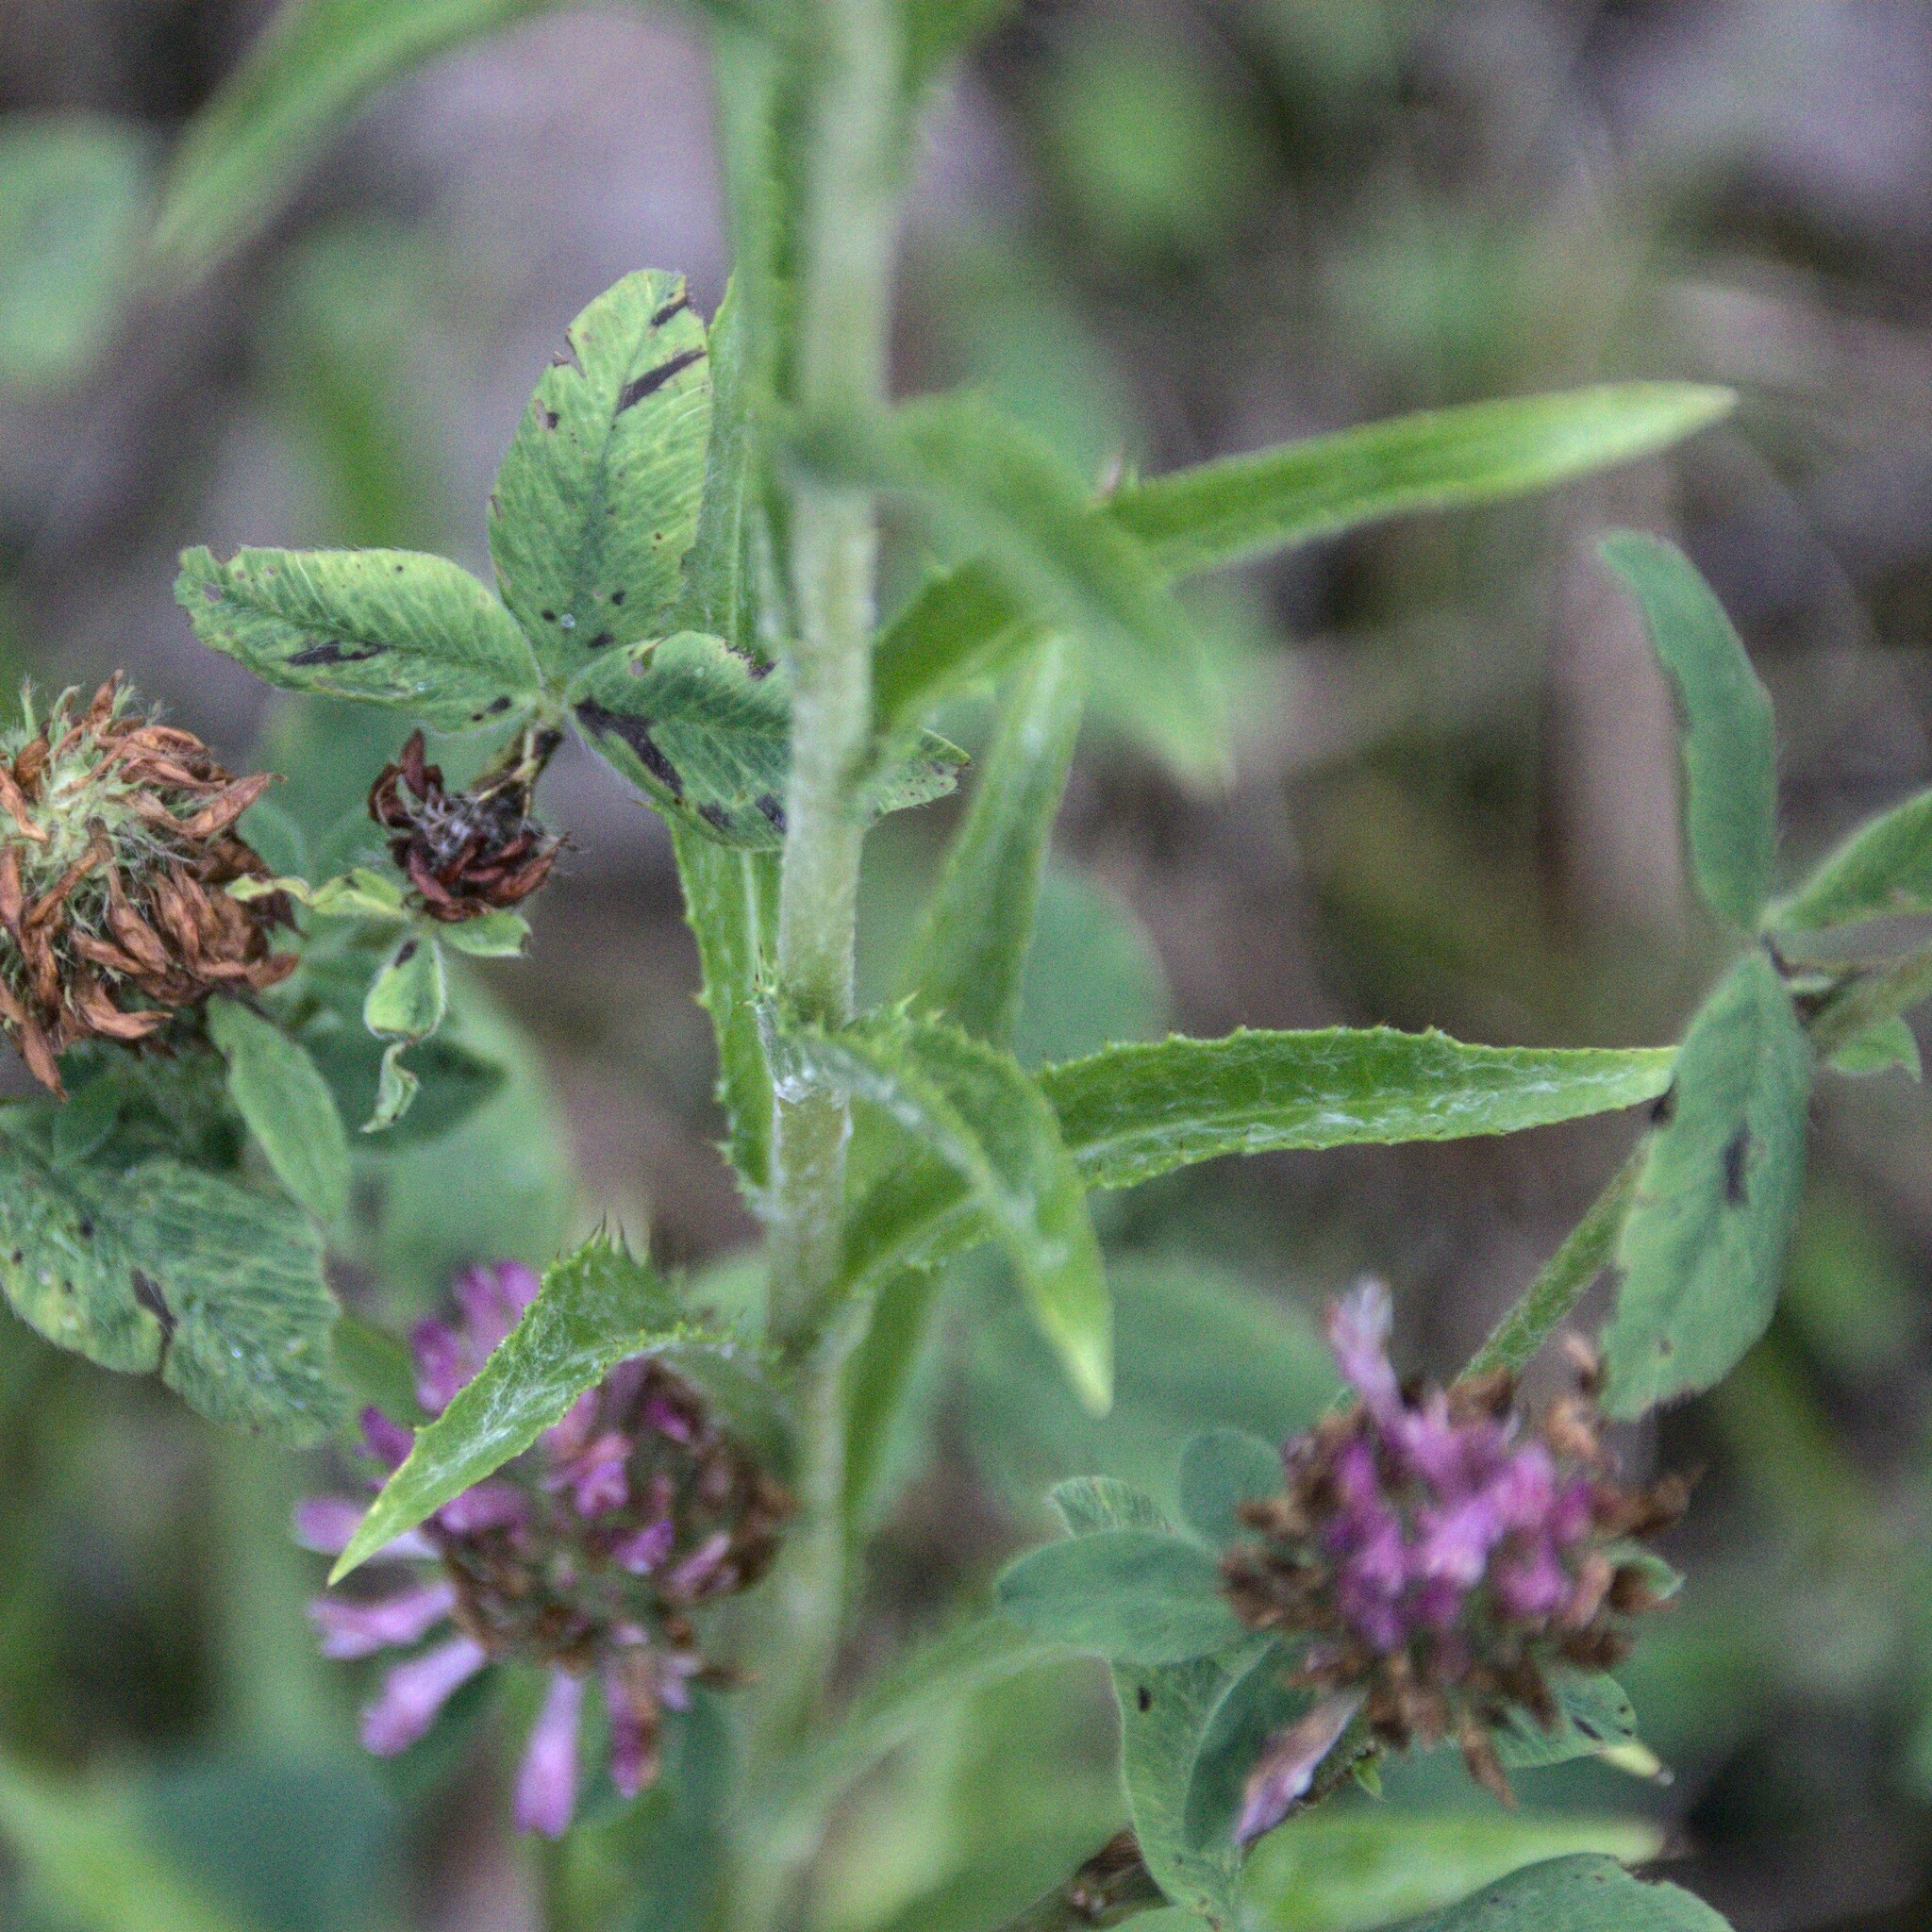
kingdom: Plantae
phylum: Tracheophyta
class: Magnoliopsida
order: Asterales
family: Asteraceae
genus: Carlina
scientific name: Carlina biebersteinii
